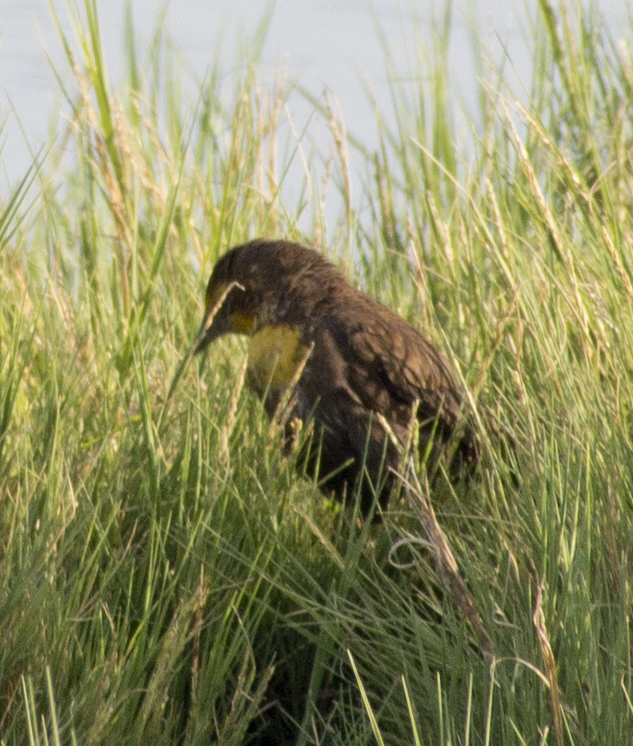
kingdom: Animalia
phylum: Chordata
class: Aves
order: Passeriformes
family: Icteridae
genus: Xanthocephalus
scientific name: Xanthocephalus xanthocephalus
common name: Yellow-headed blackbird
